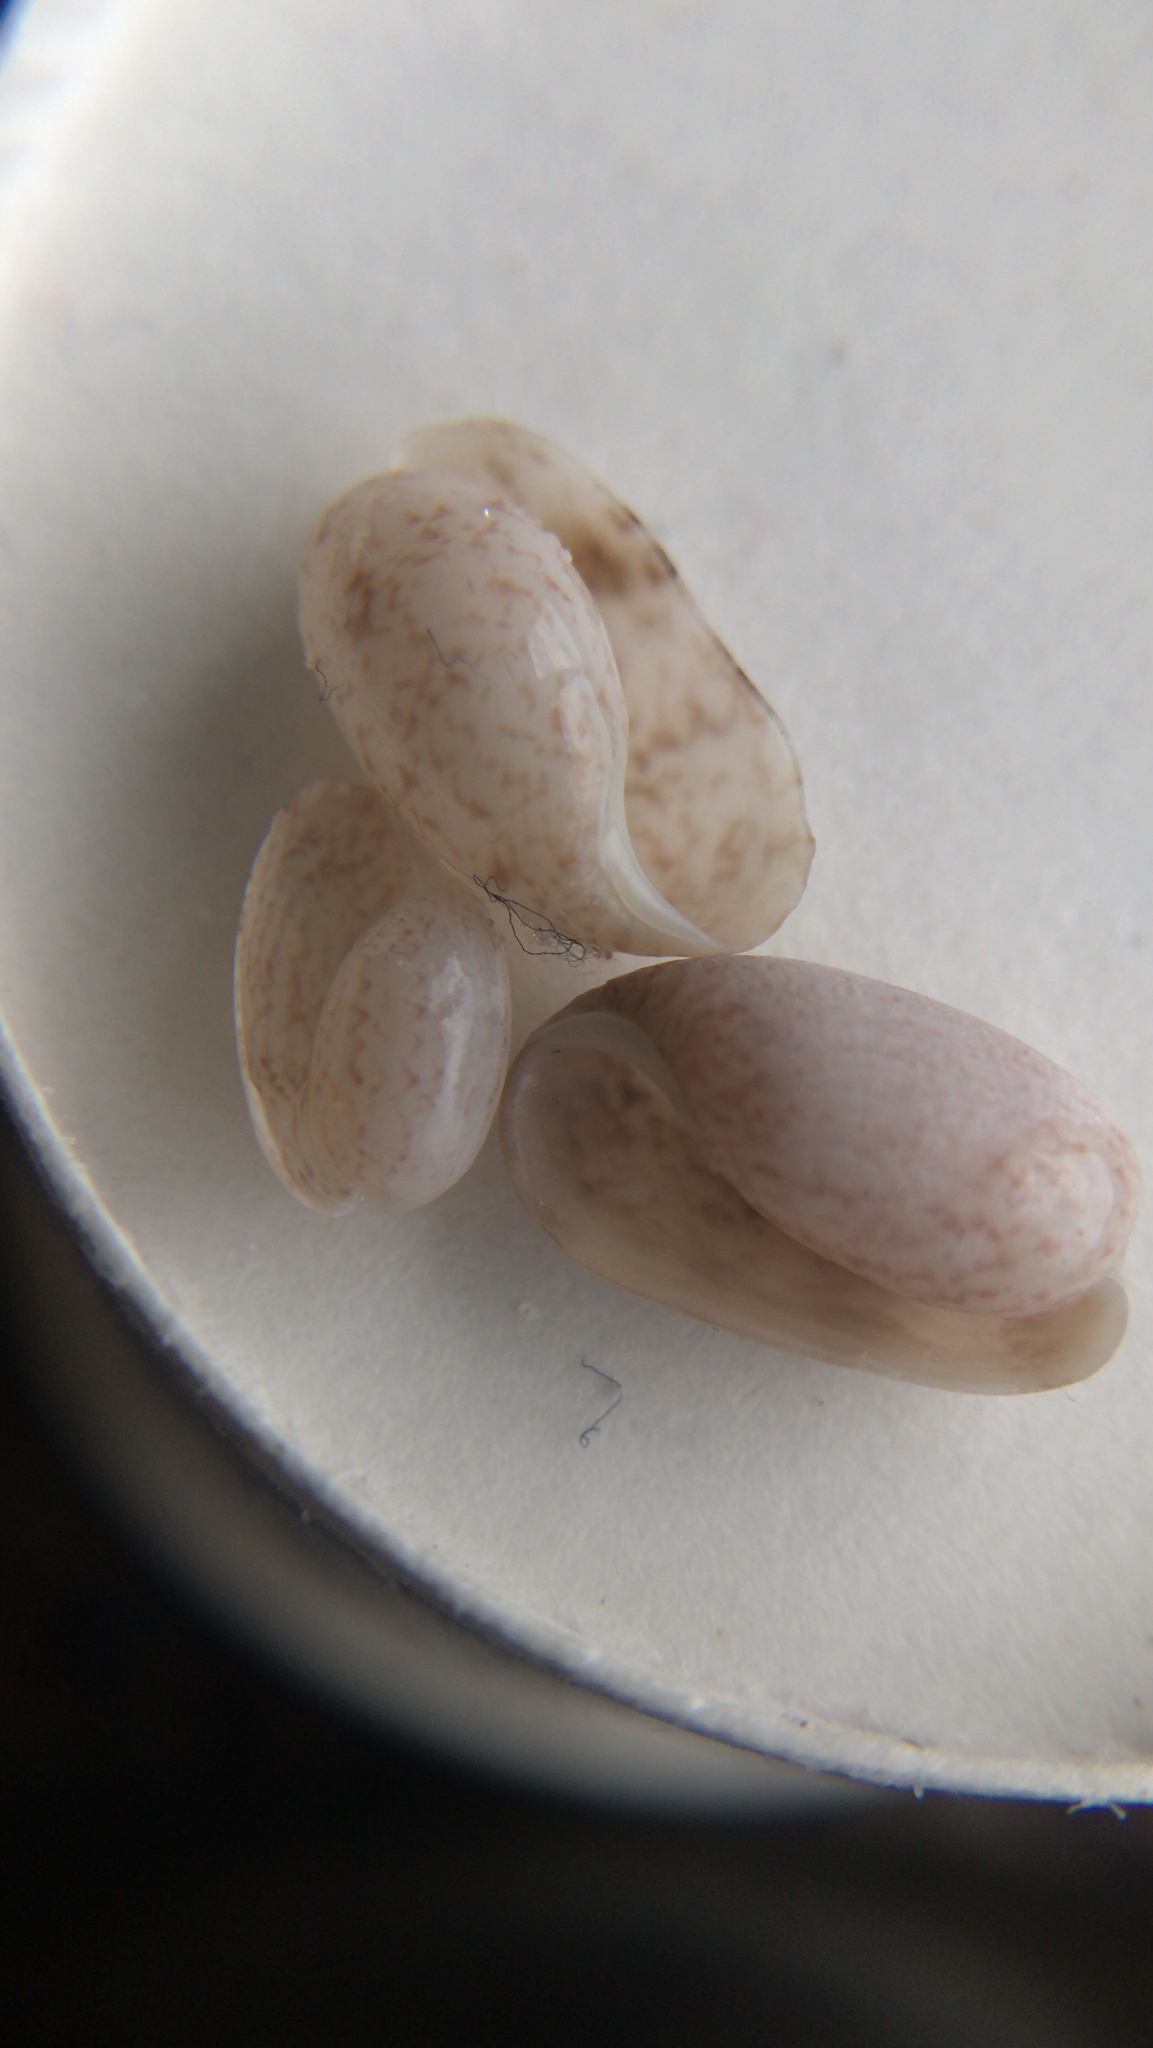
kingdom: Animalia
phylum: Mollusca
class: Gastropoda
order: Cephalaspidea
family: Bullidae
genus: Bulla
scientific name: Bulla occidentalis
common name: Common west-indian bubble
